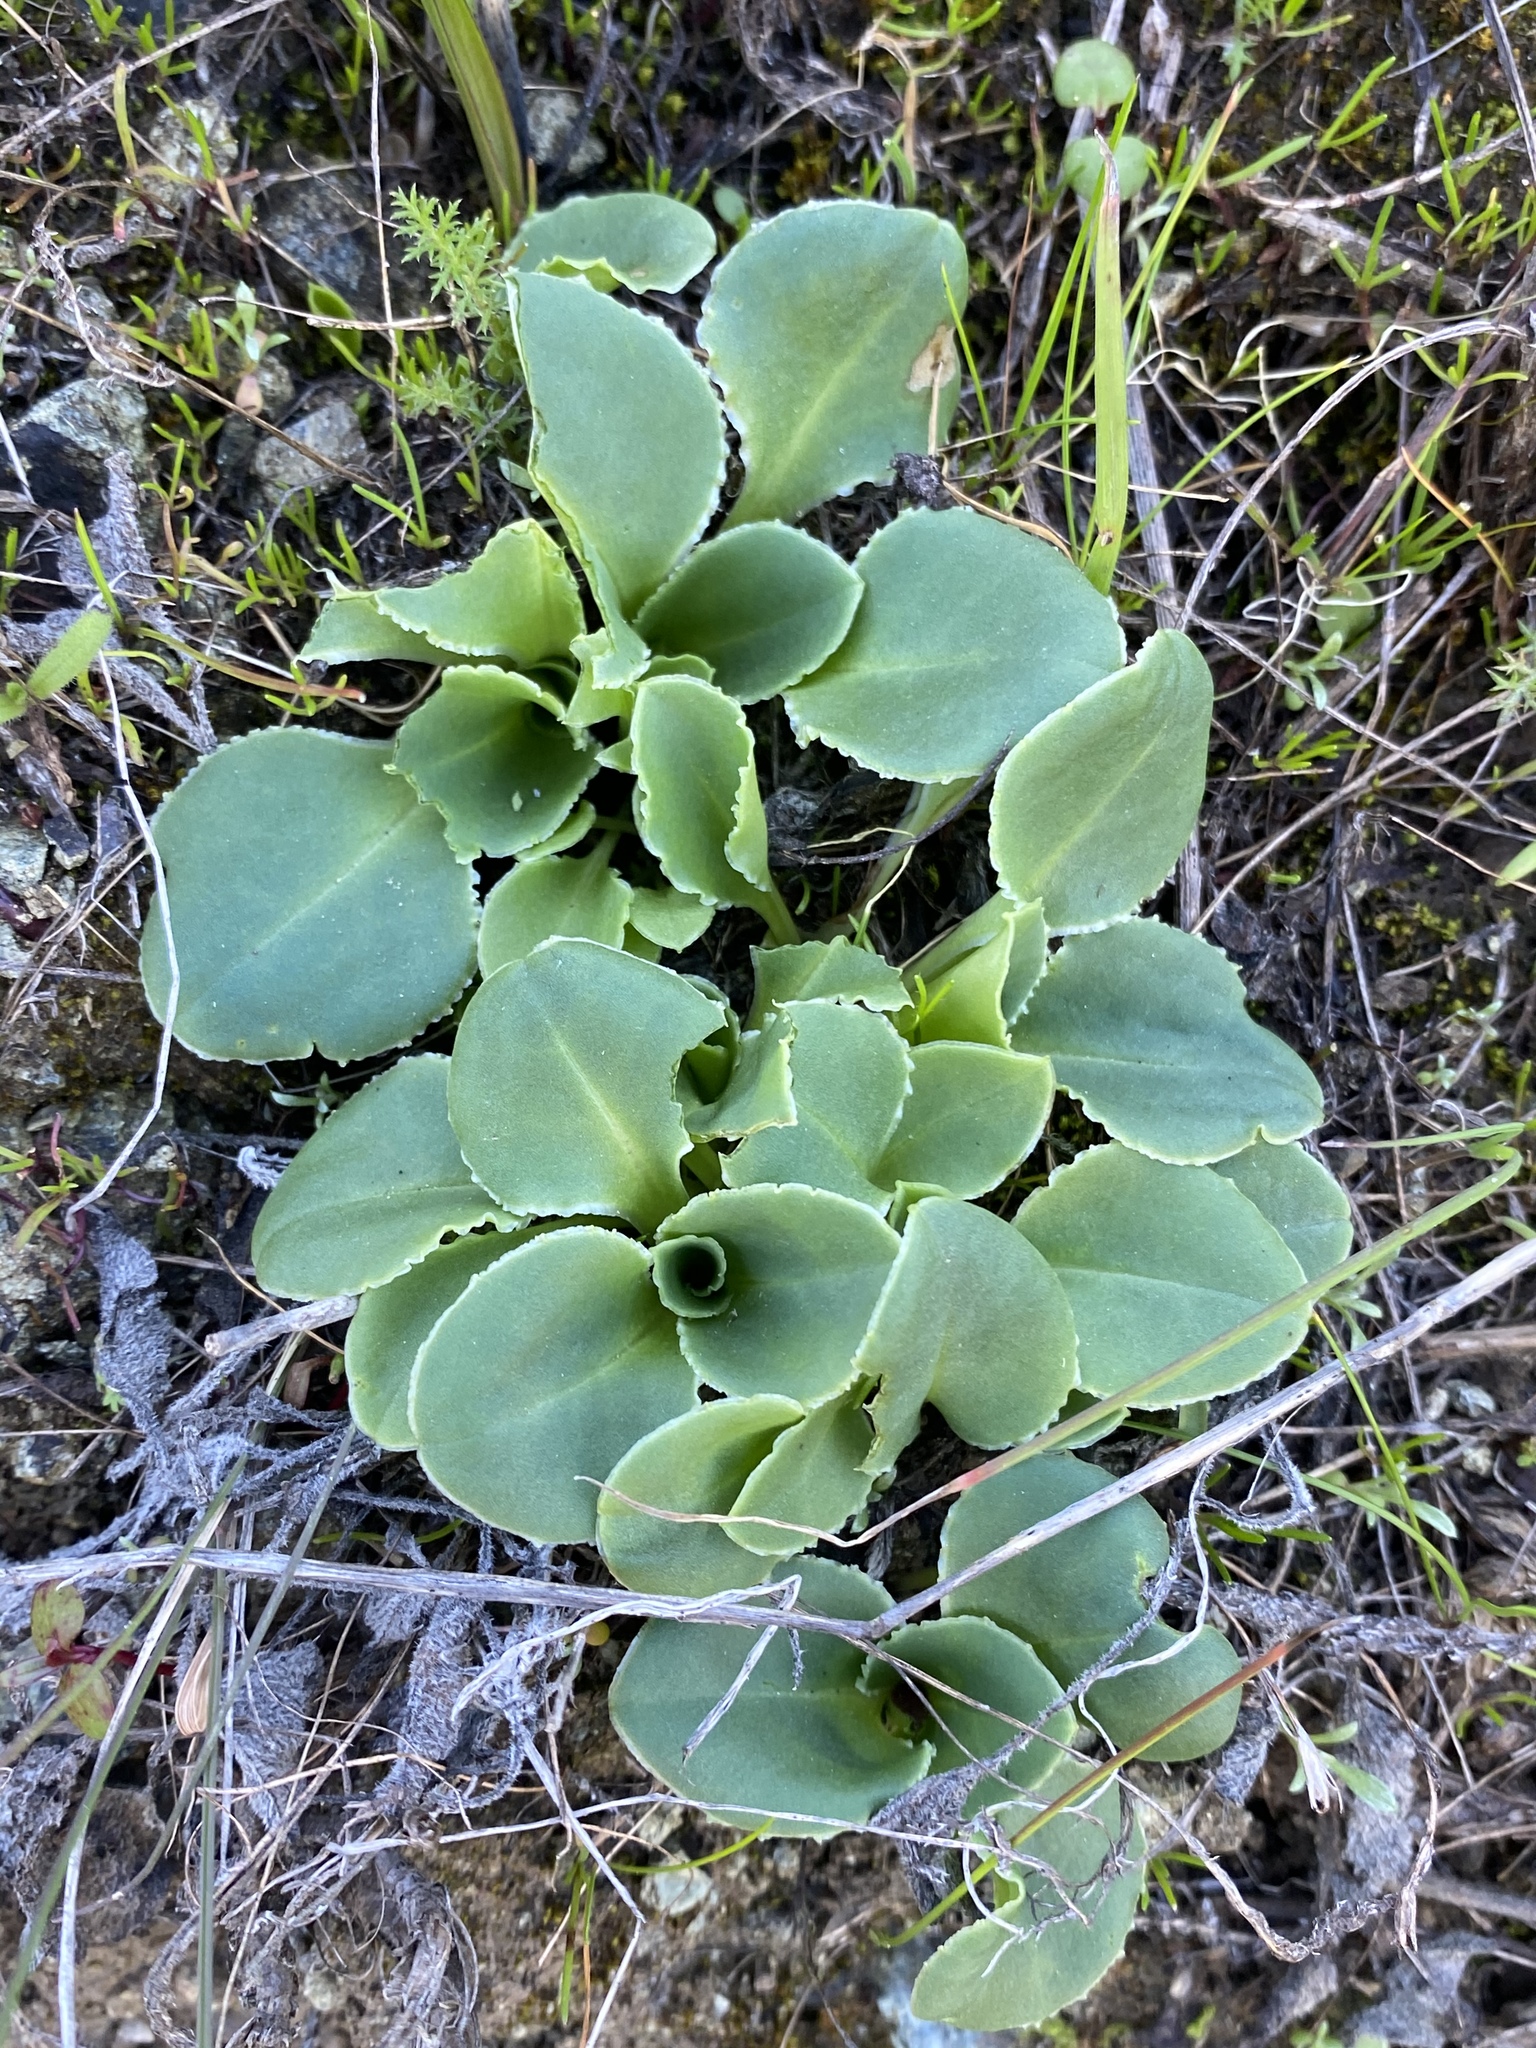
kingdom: Plantae
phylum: Tracheophyta
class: Magnoliopsida
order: Ericales
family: Primulaceae
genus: Dodecatheon
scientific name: Dodecatheon hendersonii
